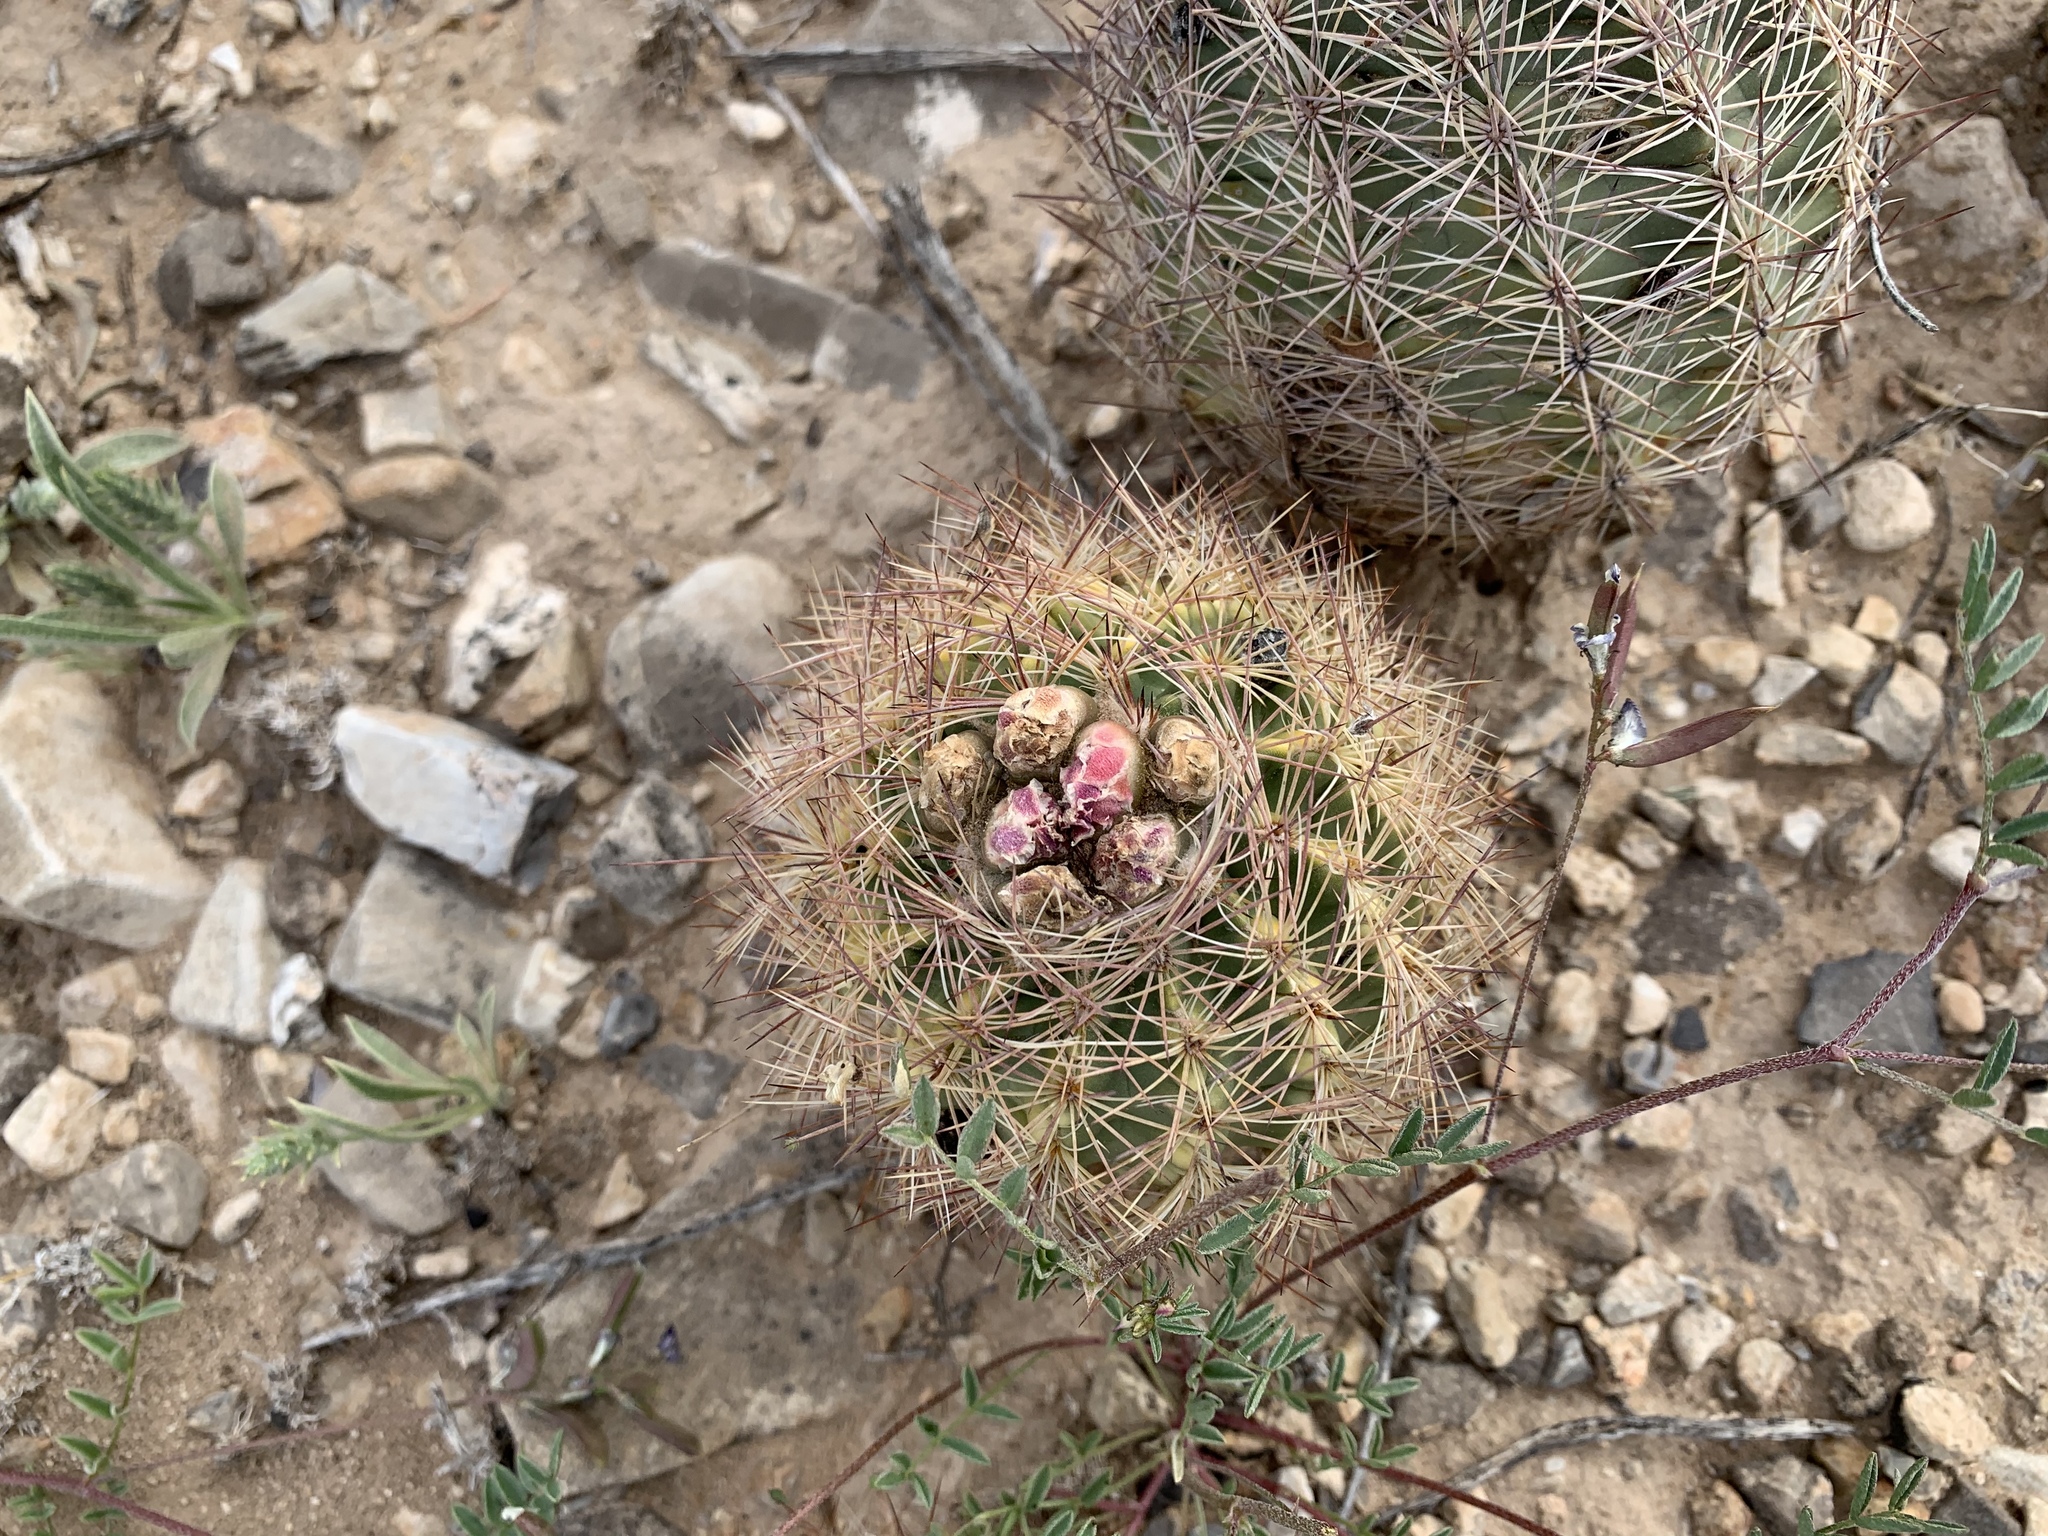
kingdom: Plantae
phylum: Tracheophyta
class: Magnoliopsida
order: Caryophyllales
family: Cactaceae
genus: Sclerocactus
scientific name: Sclerocactus intertextus
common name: White fish-hook cactus
